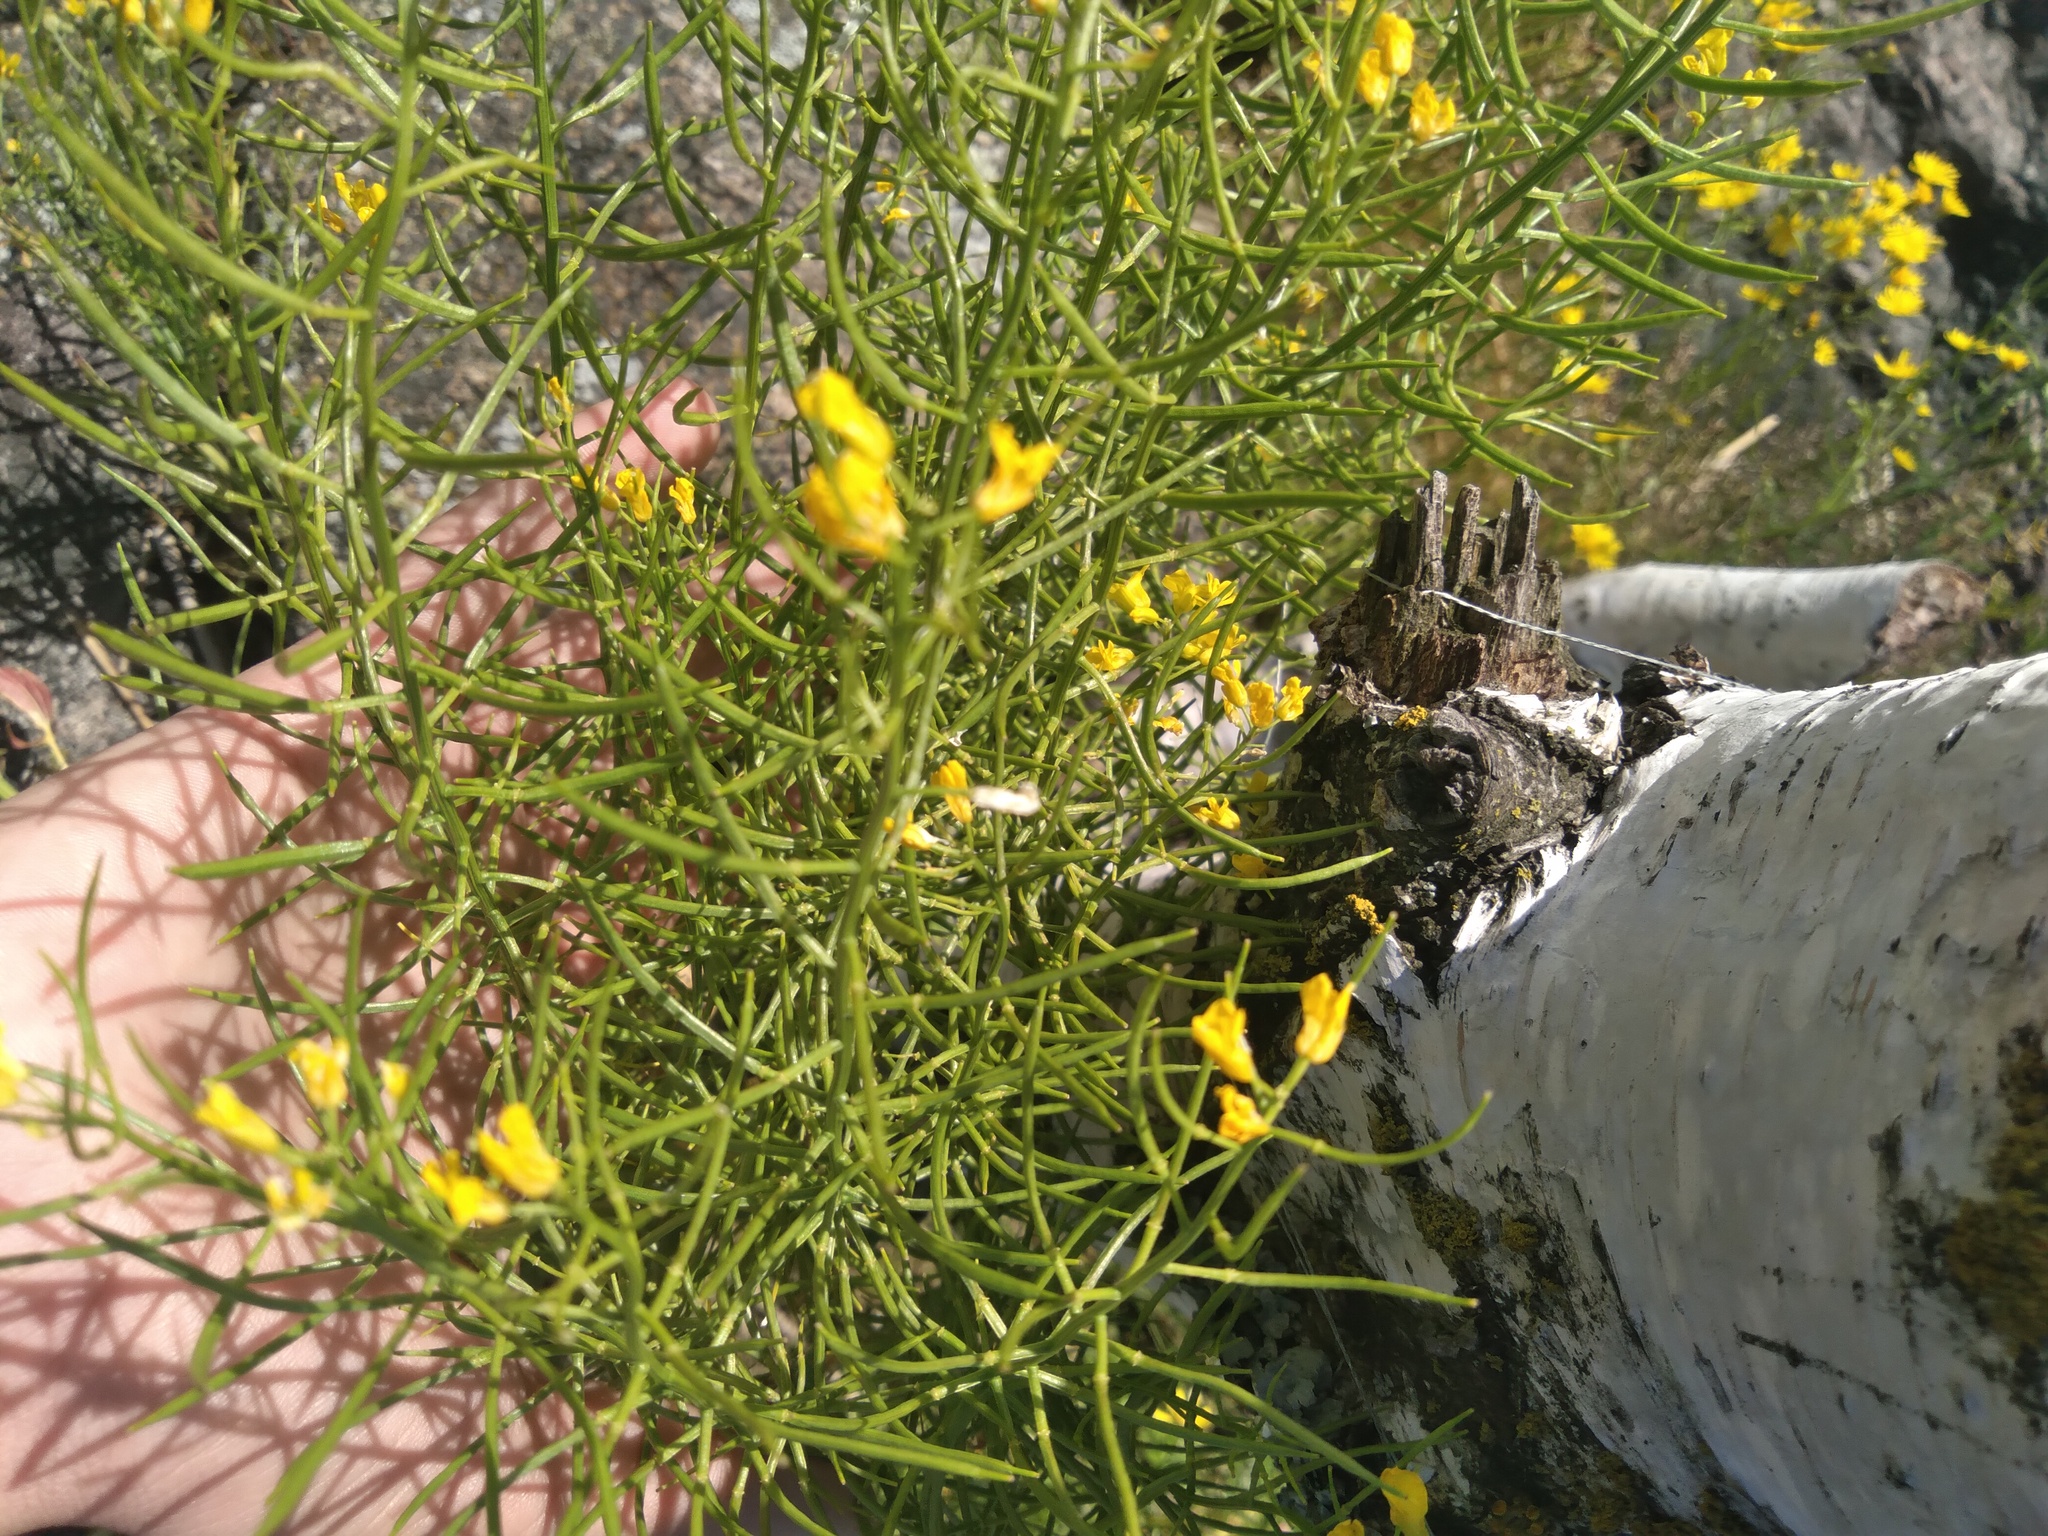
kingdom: Plantae
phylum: Tracheophyta
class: Magnoliopsida
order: Brassicales
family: Brassicaceae
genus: Erysimum
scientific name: Erysimum cheiranthoides
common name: Treacle mustard
